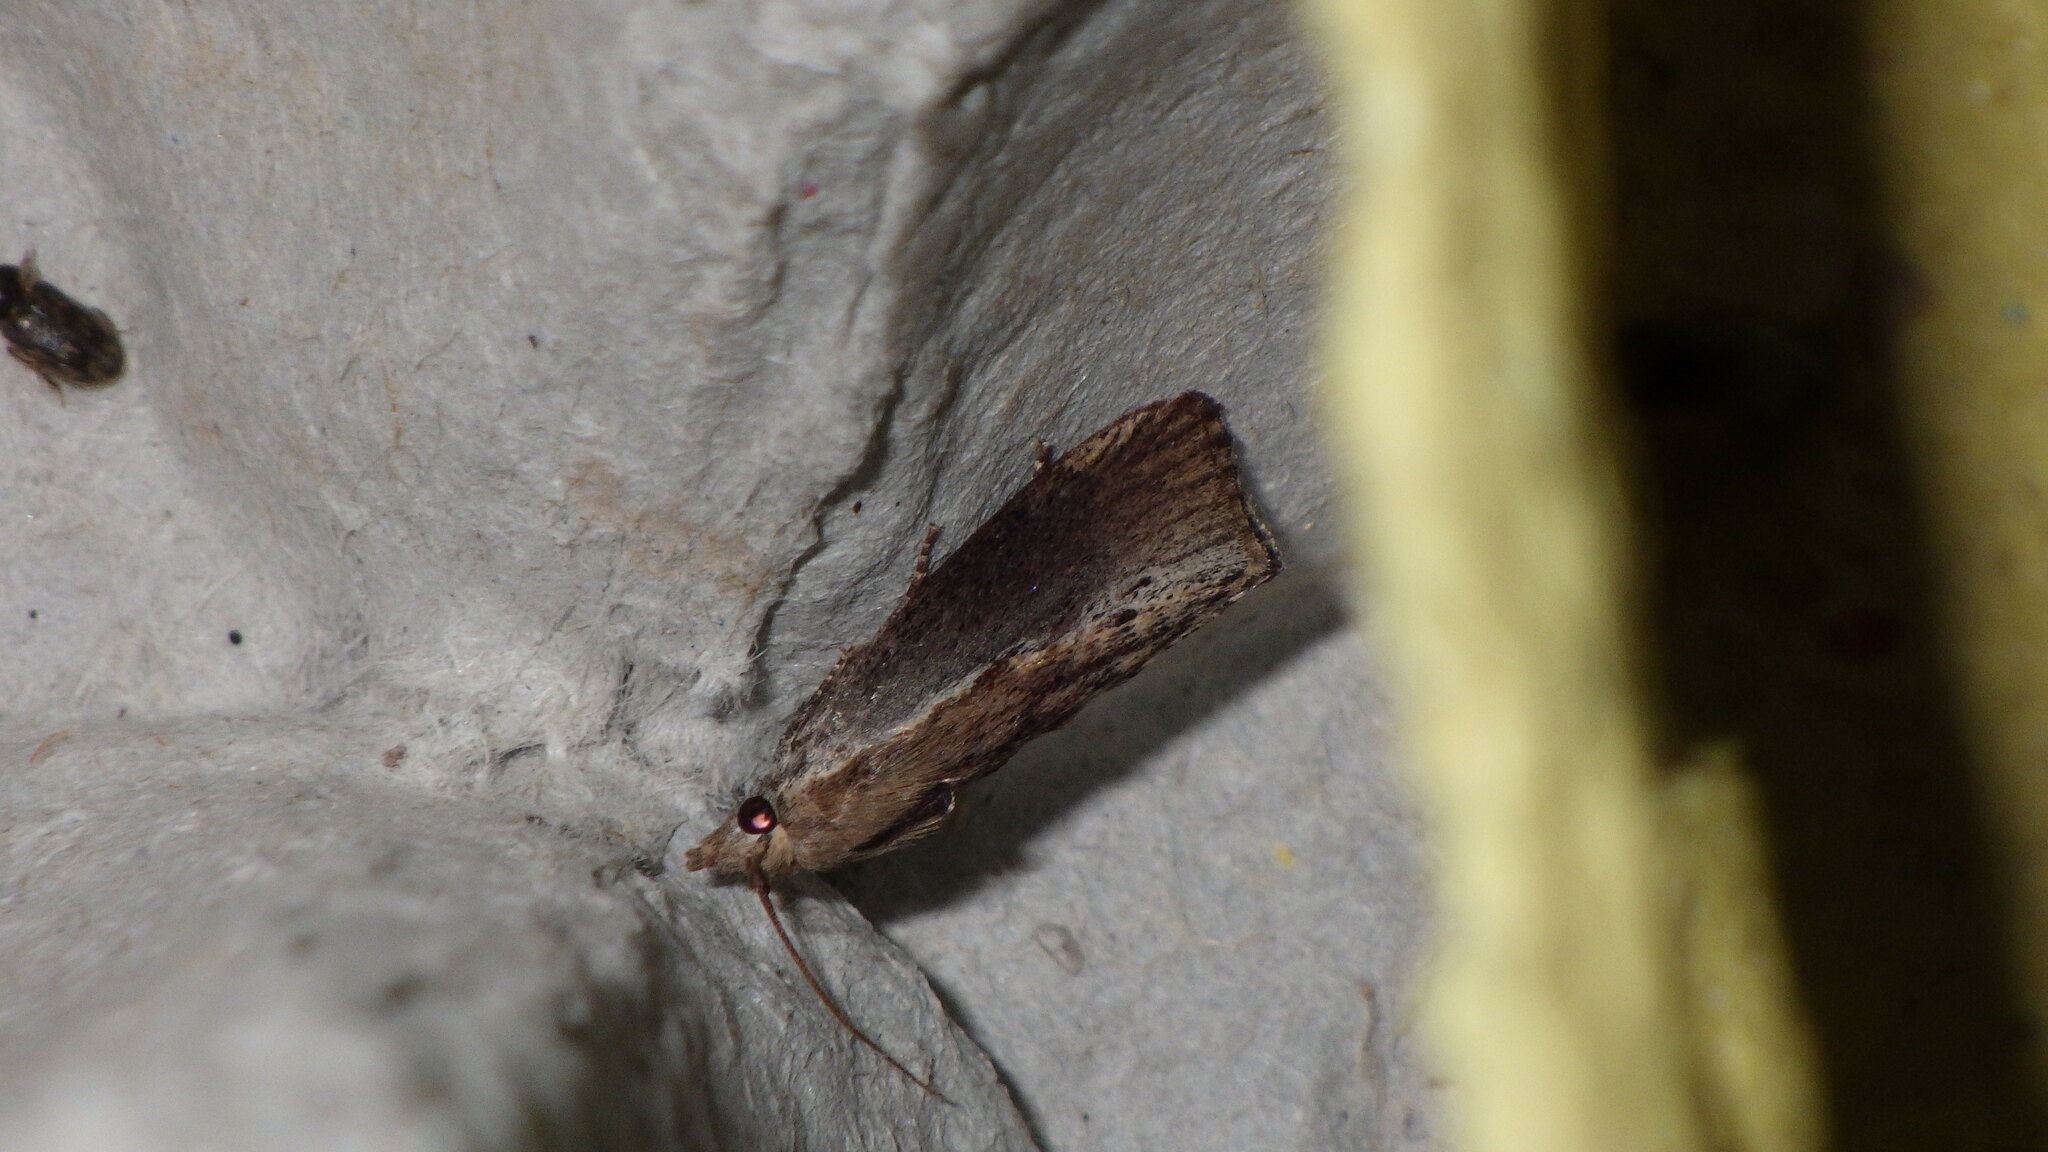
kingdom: Animalia
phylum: Arthropoda
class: Insecta
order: Lepidoptera
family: Pyralidae
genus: Galleria
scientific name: Galleria mellonella
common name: Greater wax moth
